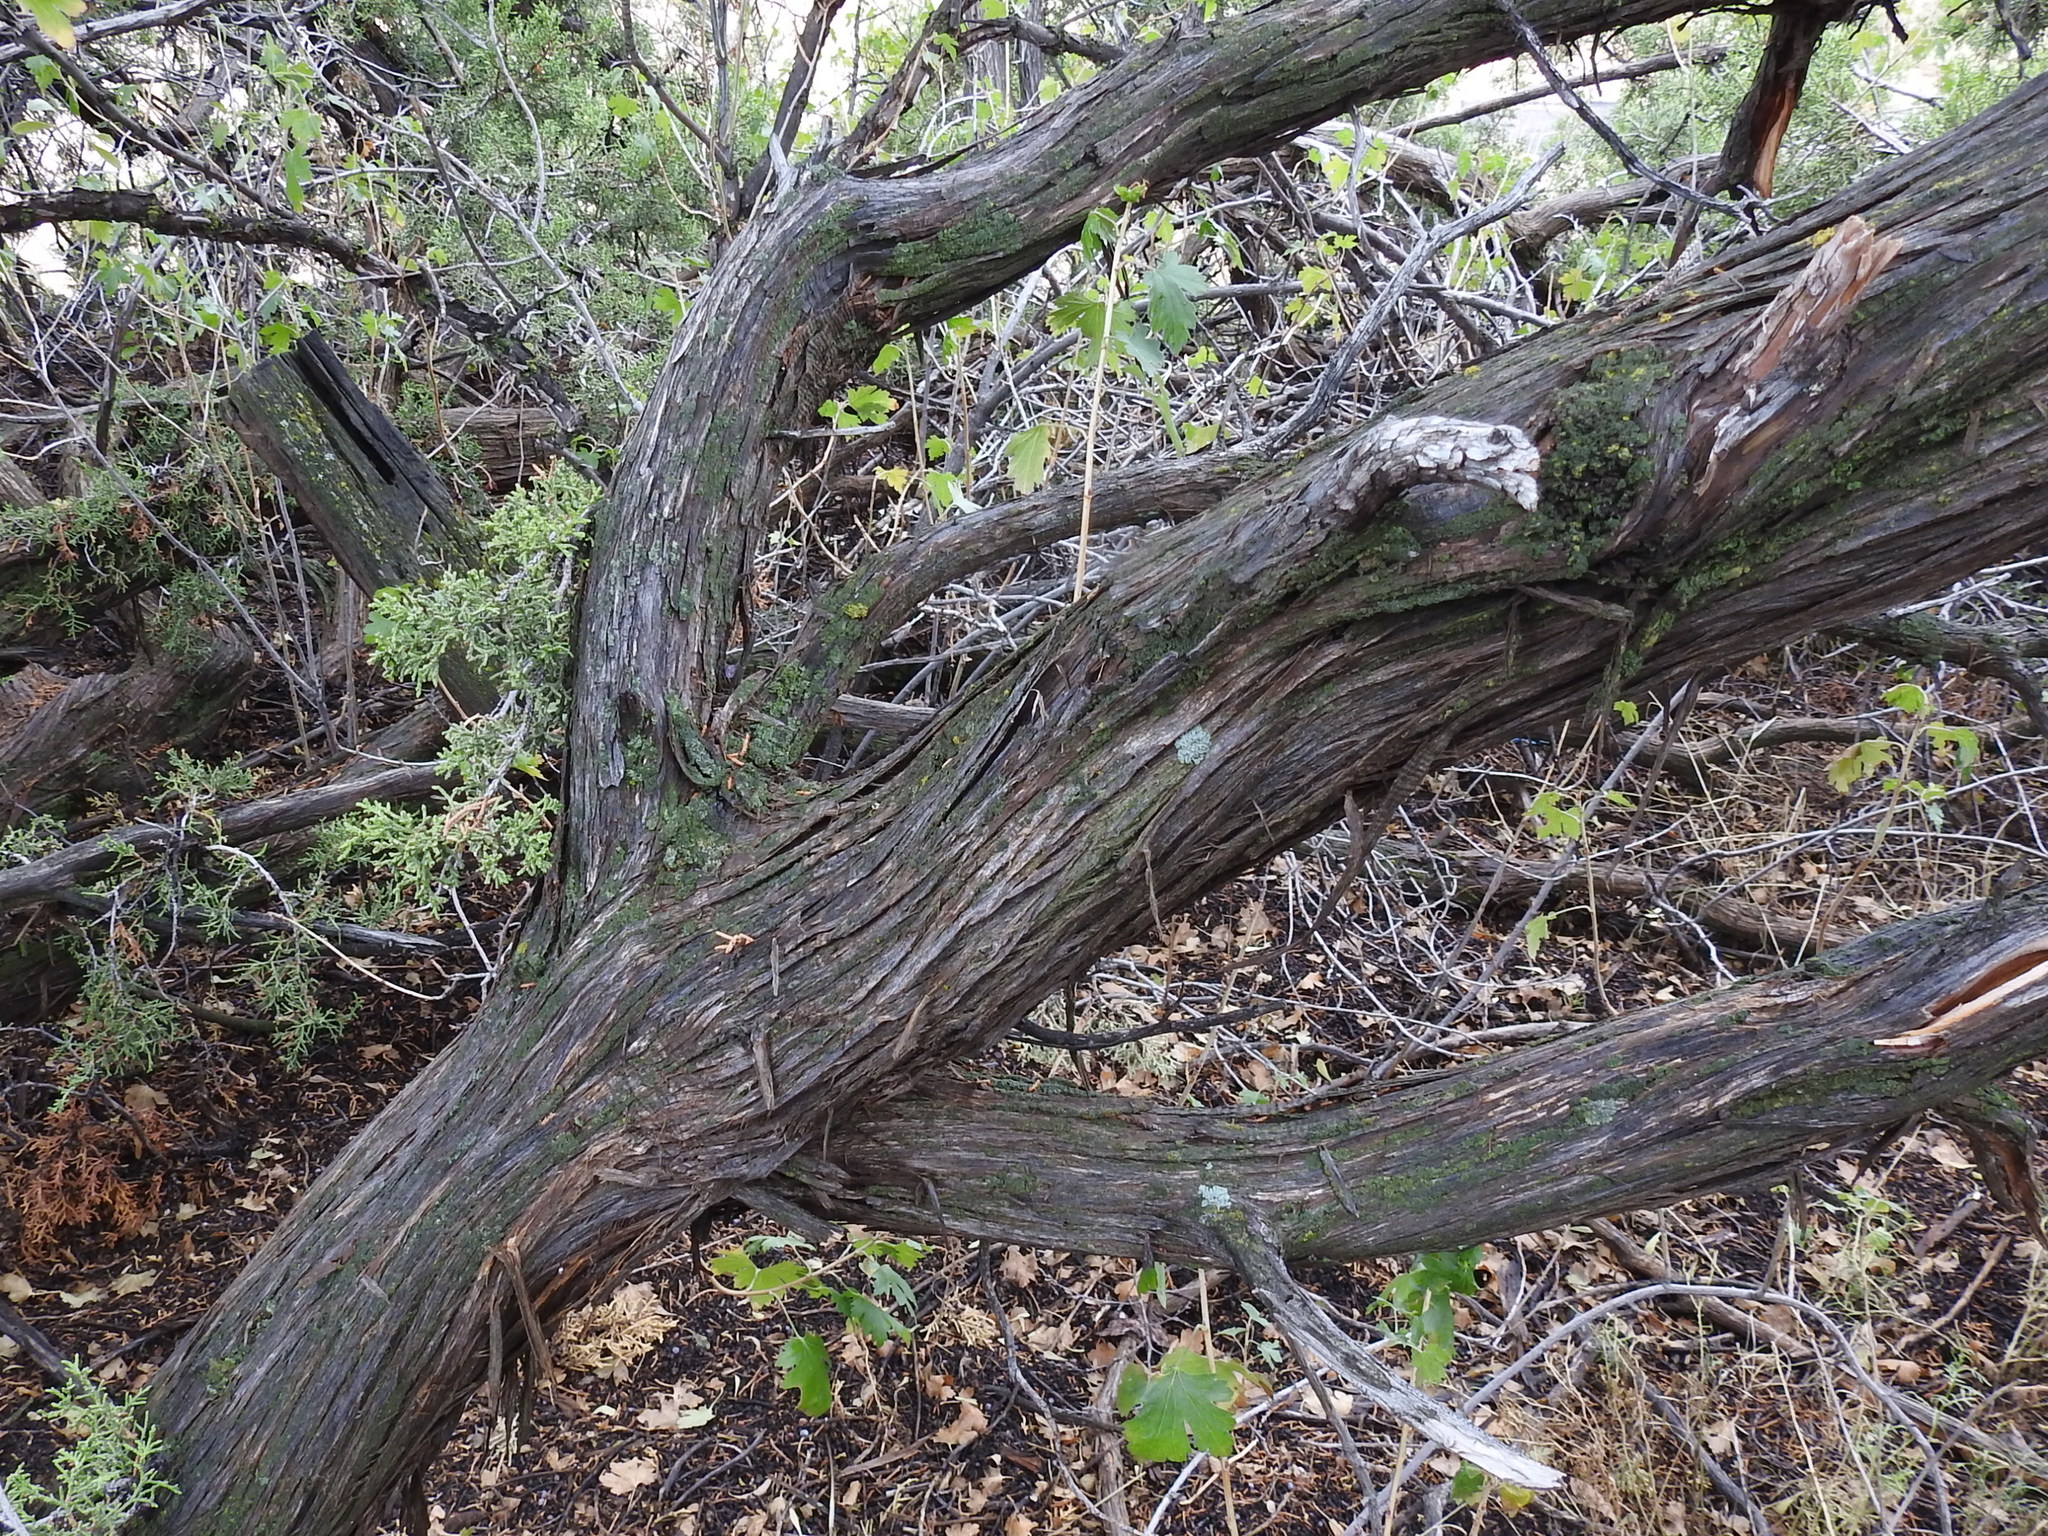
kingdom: Plantae
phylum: Tracheophyta
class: Pinopsida
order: Pinales
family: Cupressaceae
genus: Juniperus
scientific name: Juniperus monosperma
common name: One-seed juniper
